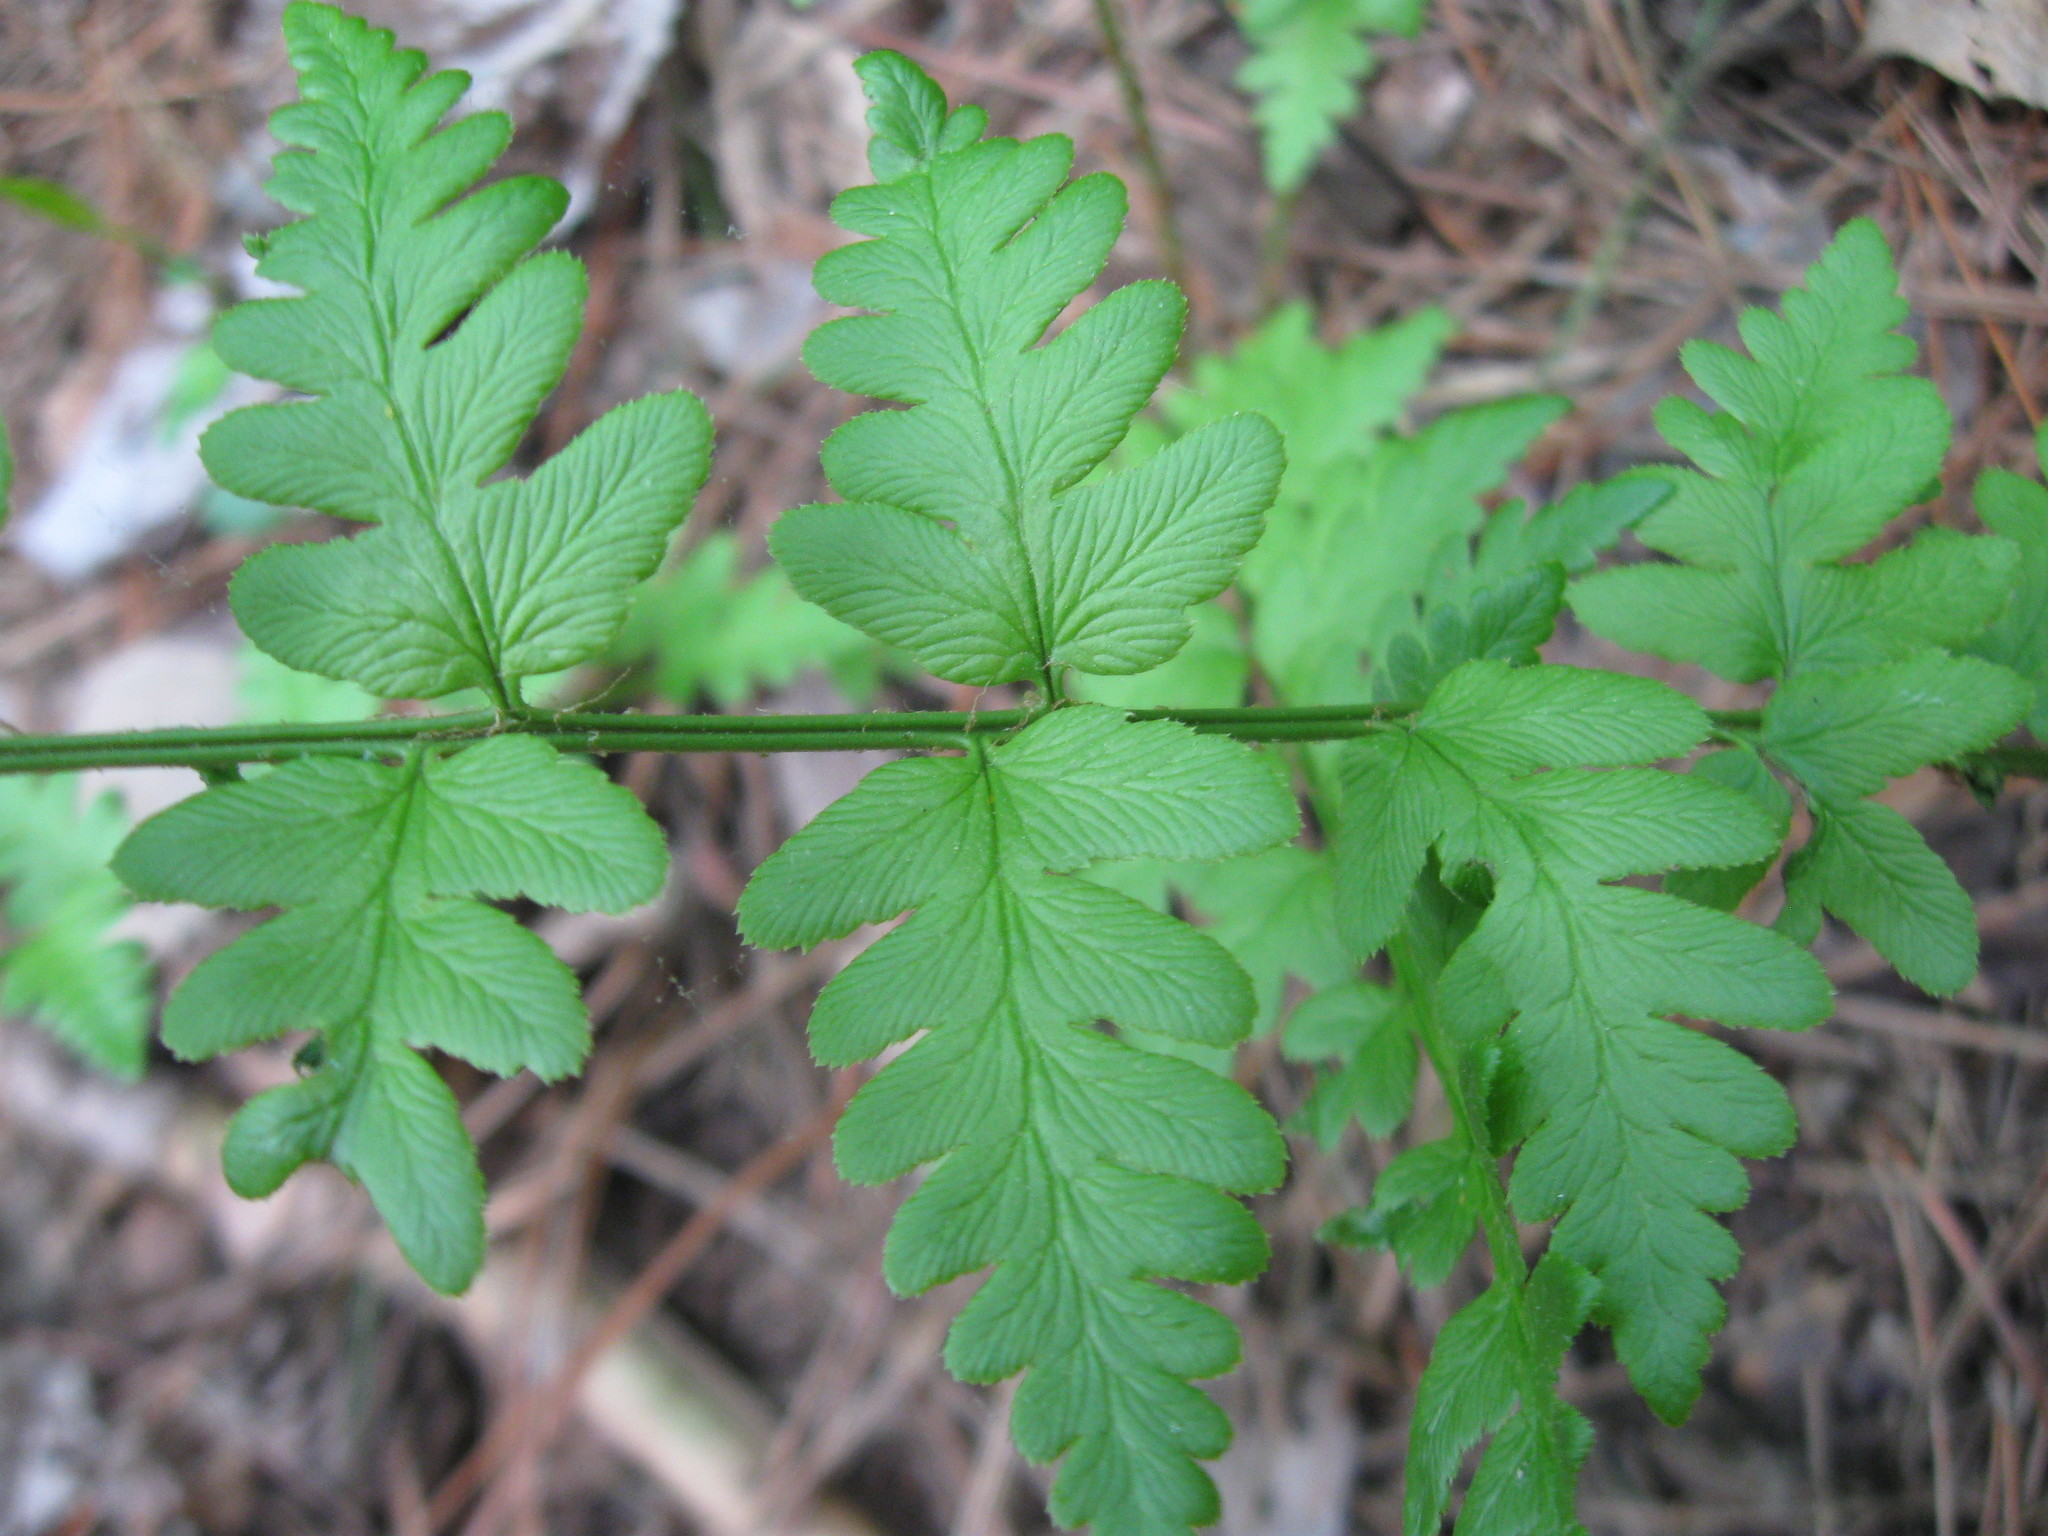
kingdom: Plantae
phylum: Tracheophyta
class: Polypodiopsida
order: Polypodiales
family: Dryopteridaceae
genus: Dryopteris
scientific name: Dryopteris cristata
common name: Crested wood fern
